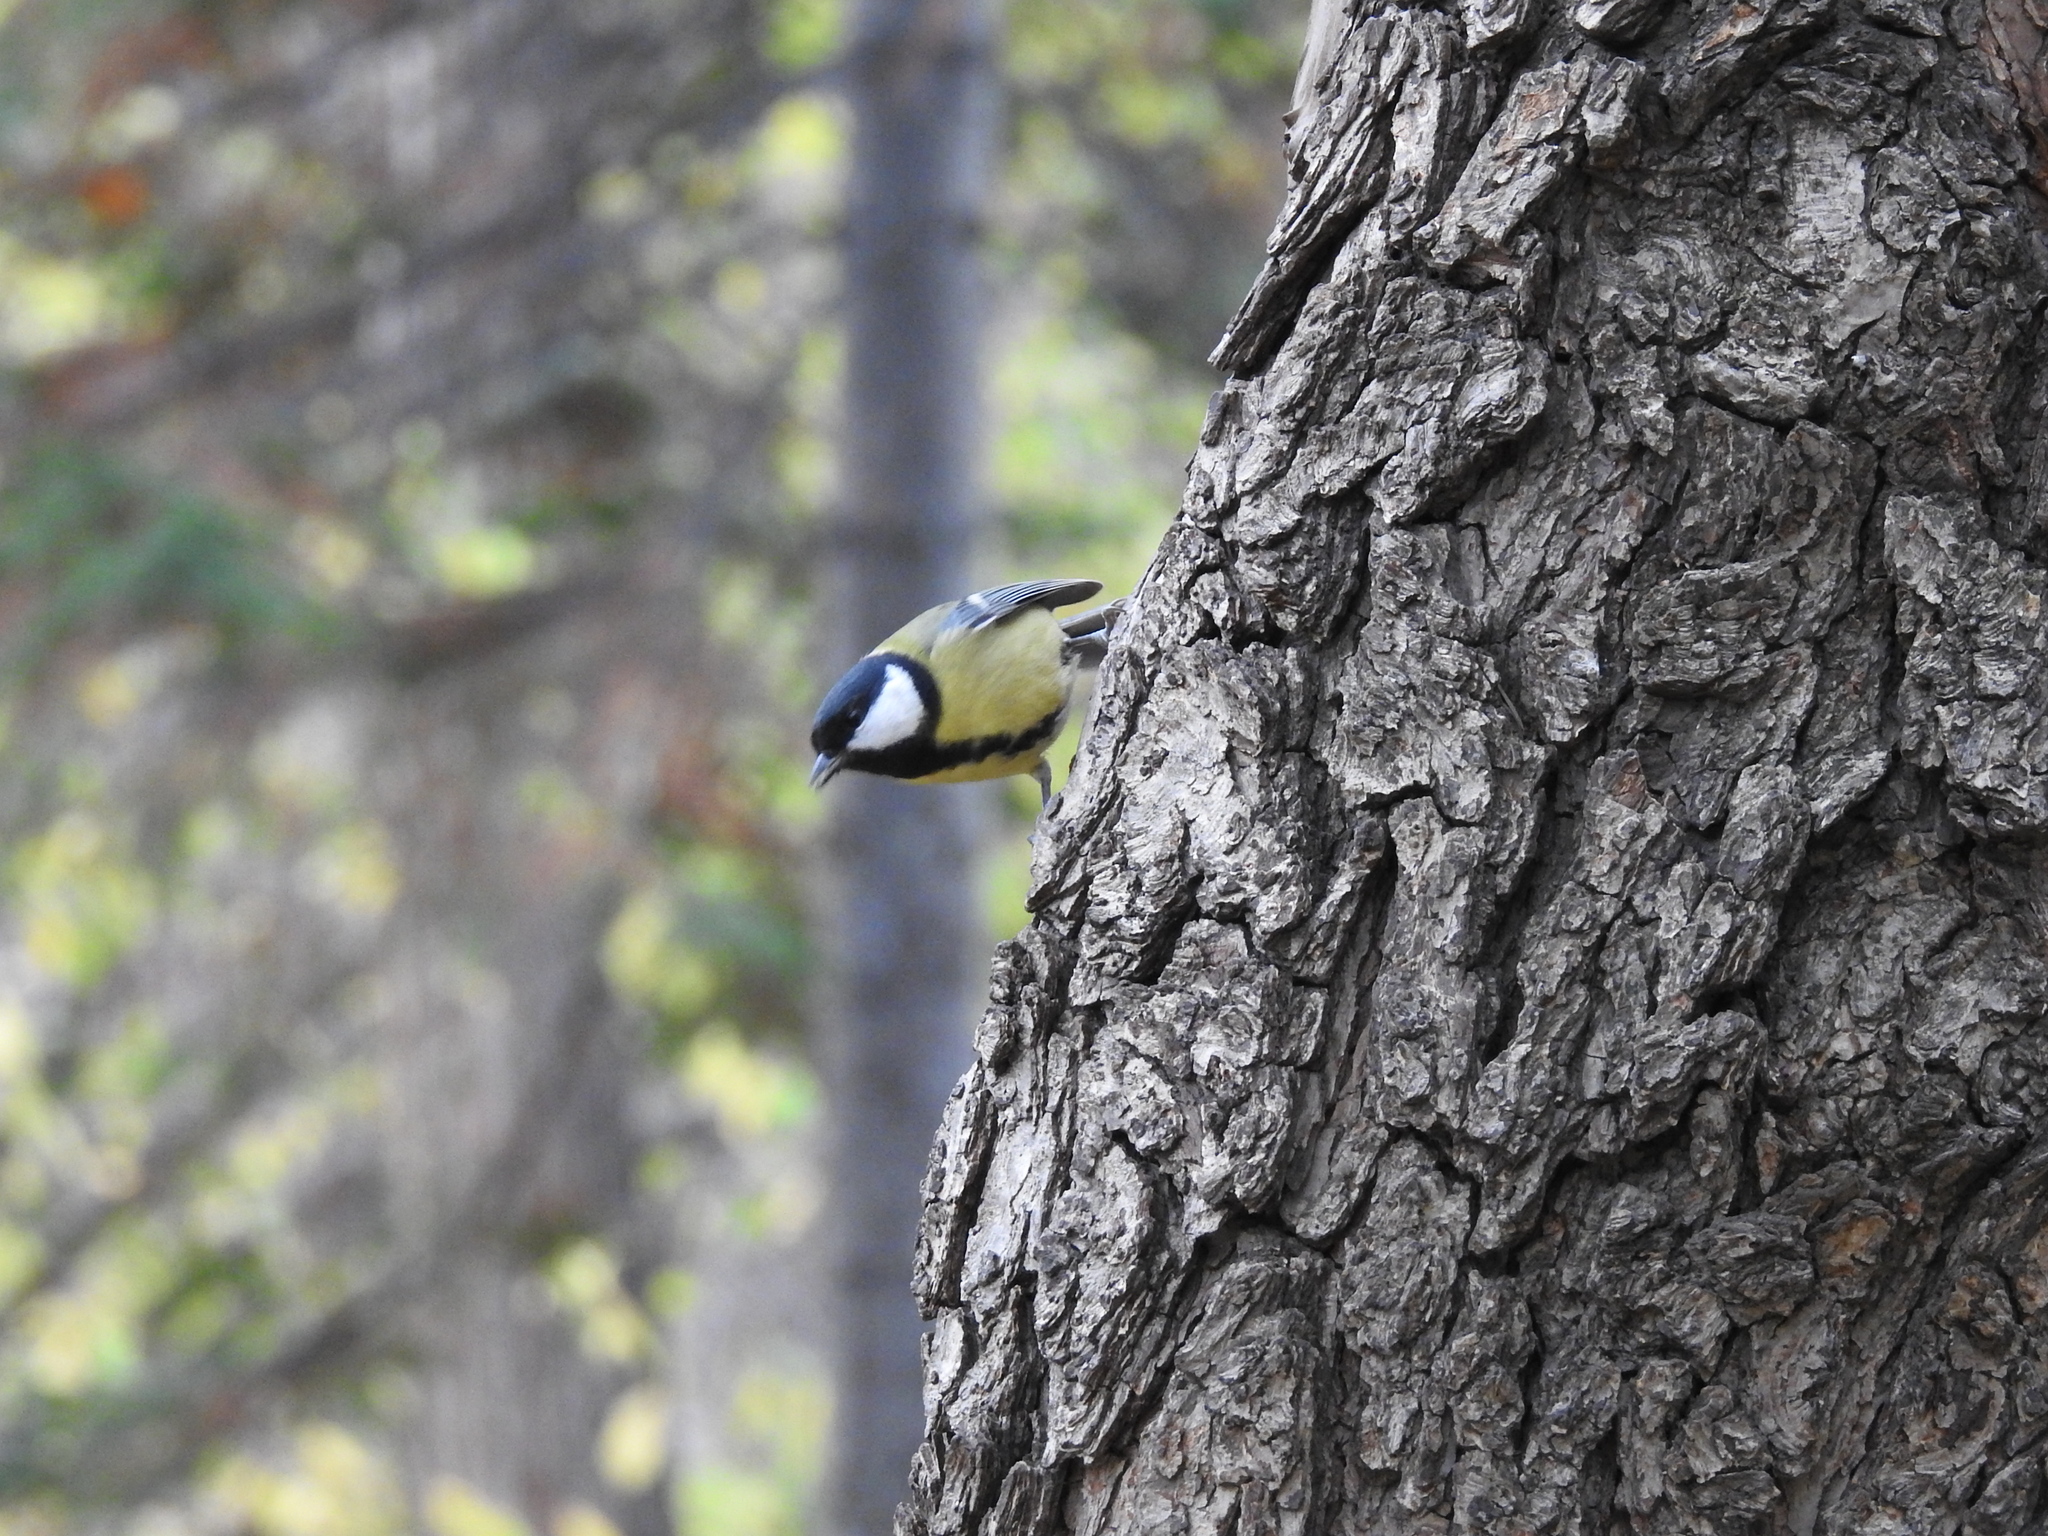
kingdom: Animalia
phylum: Chordata
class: Aves
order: Passeriformes
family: Paridae
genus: Parus
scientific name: Parus major
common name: Great tit
